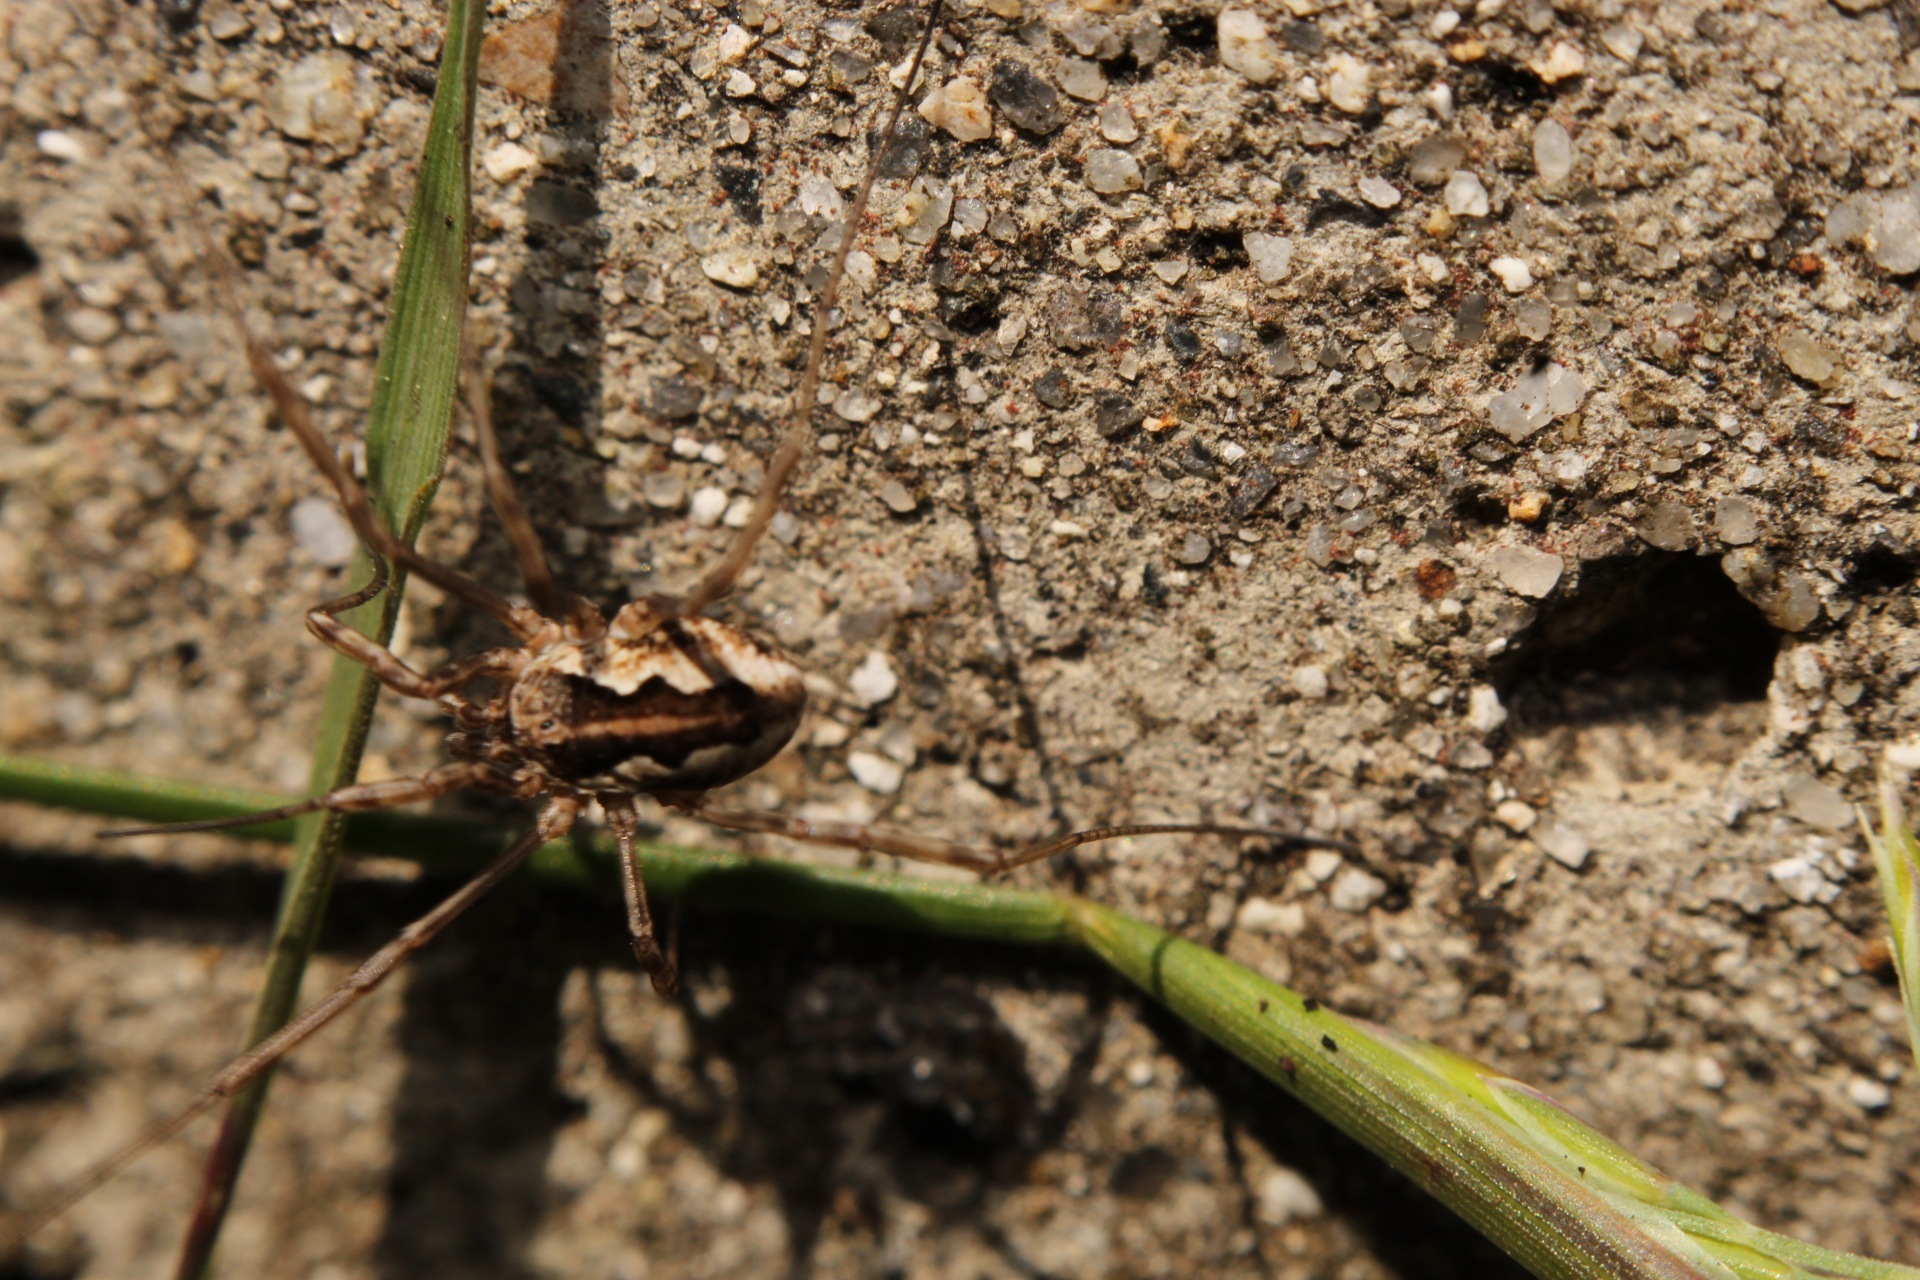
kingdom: Animalia
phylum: Arthropoda
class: Arachnida
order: Opiliones
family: Phalangiidae
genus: Mitopus
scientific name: Mitopus morio
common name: Saddleback harvestman
